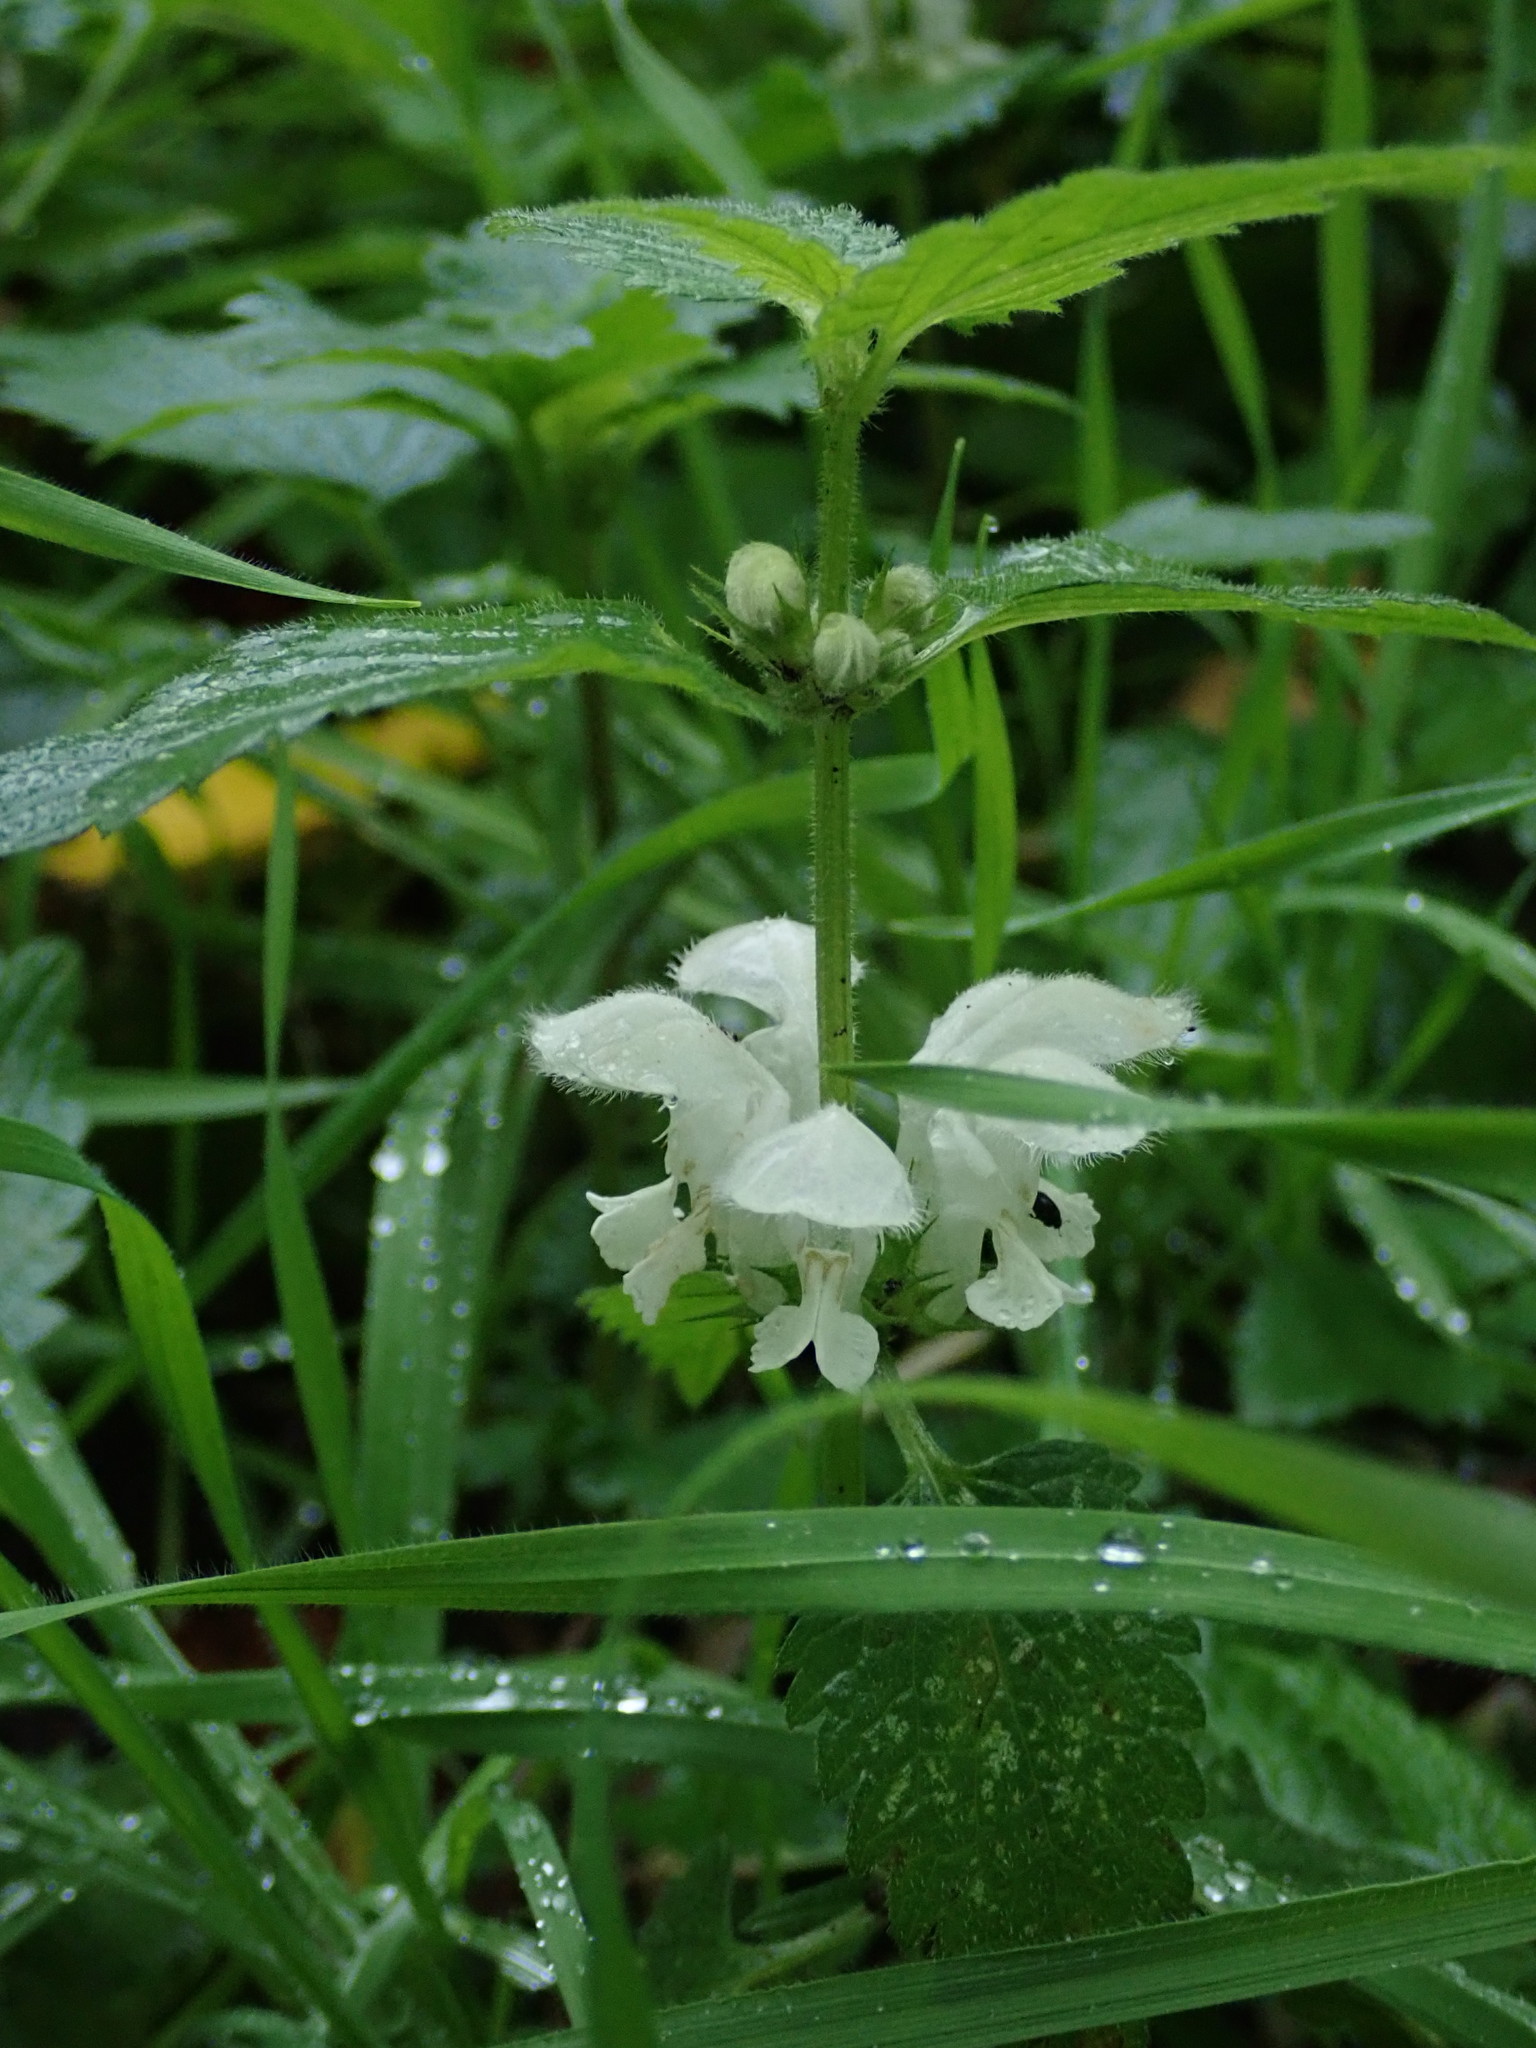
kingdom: Plantae
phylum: Tracheophyta
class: Magnoliopsida
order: Lamiales
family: Lamiaceae
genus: Lamium
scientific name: Lamium album
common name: White dead-nettle
